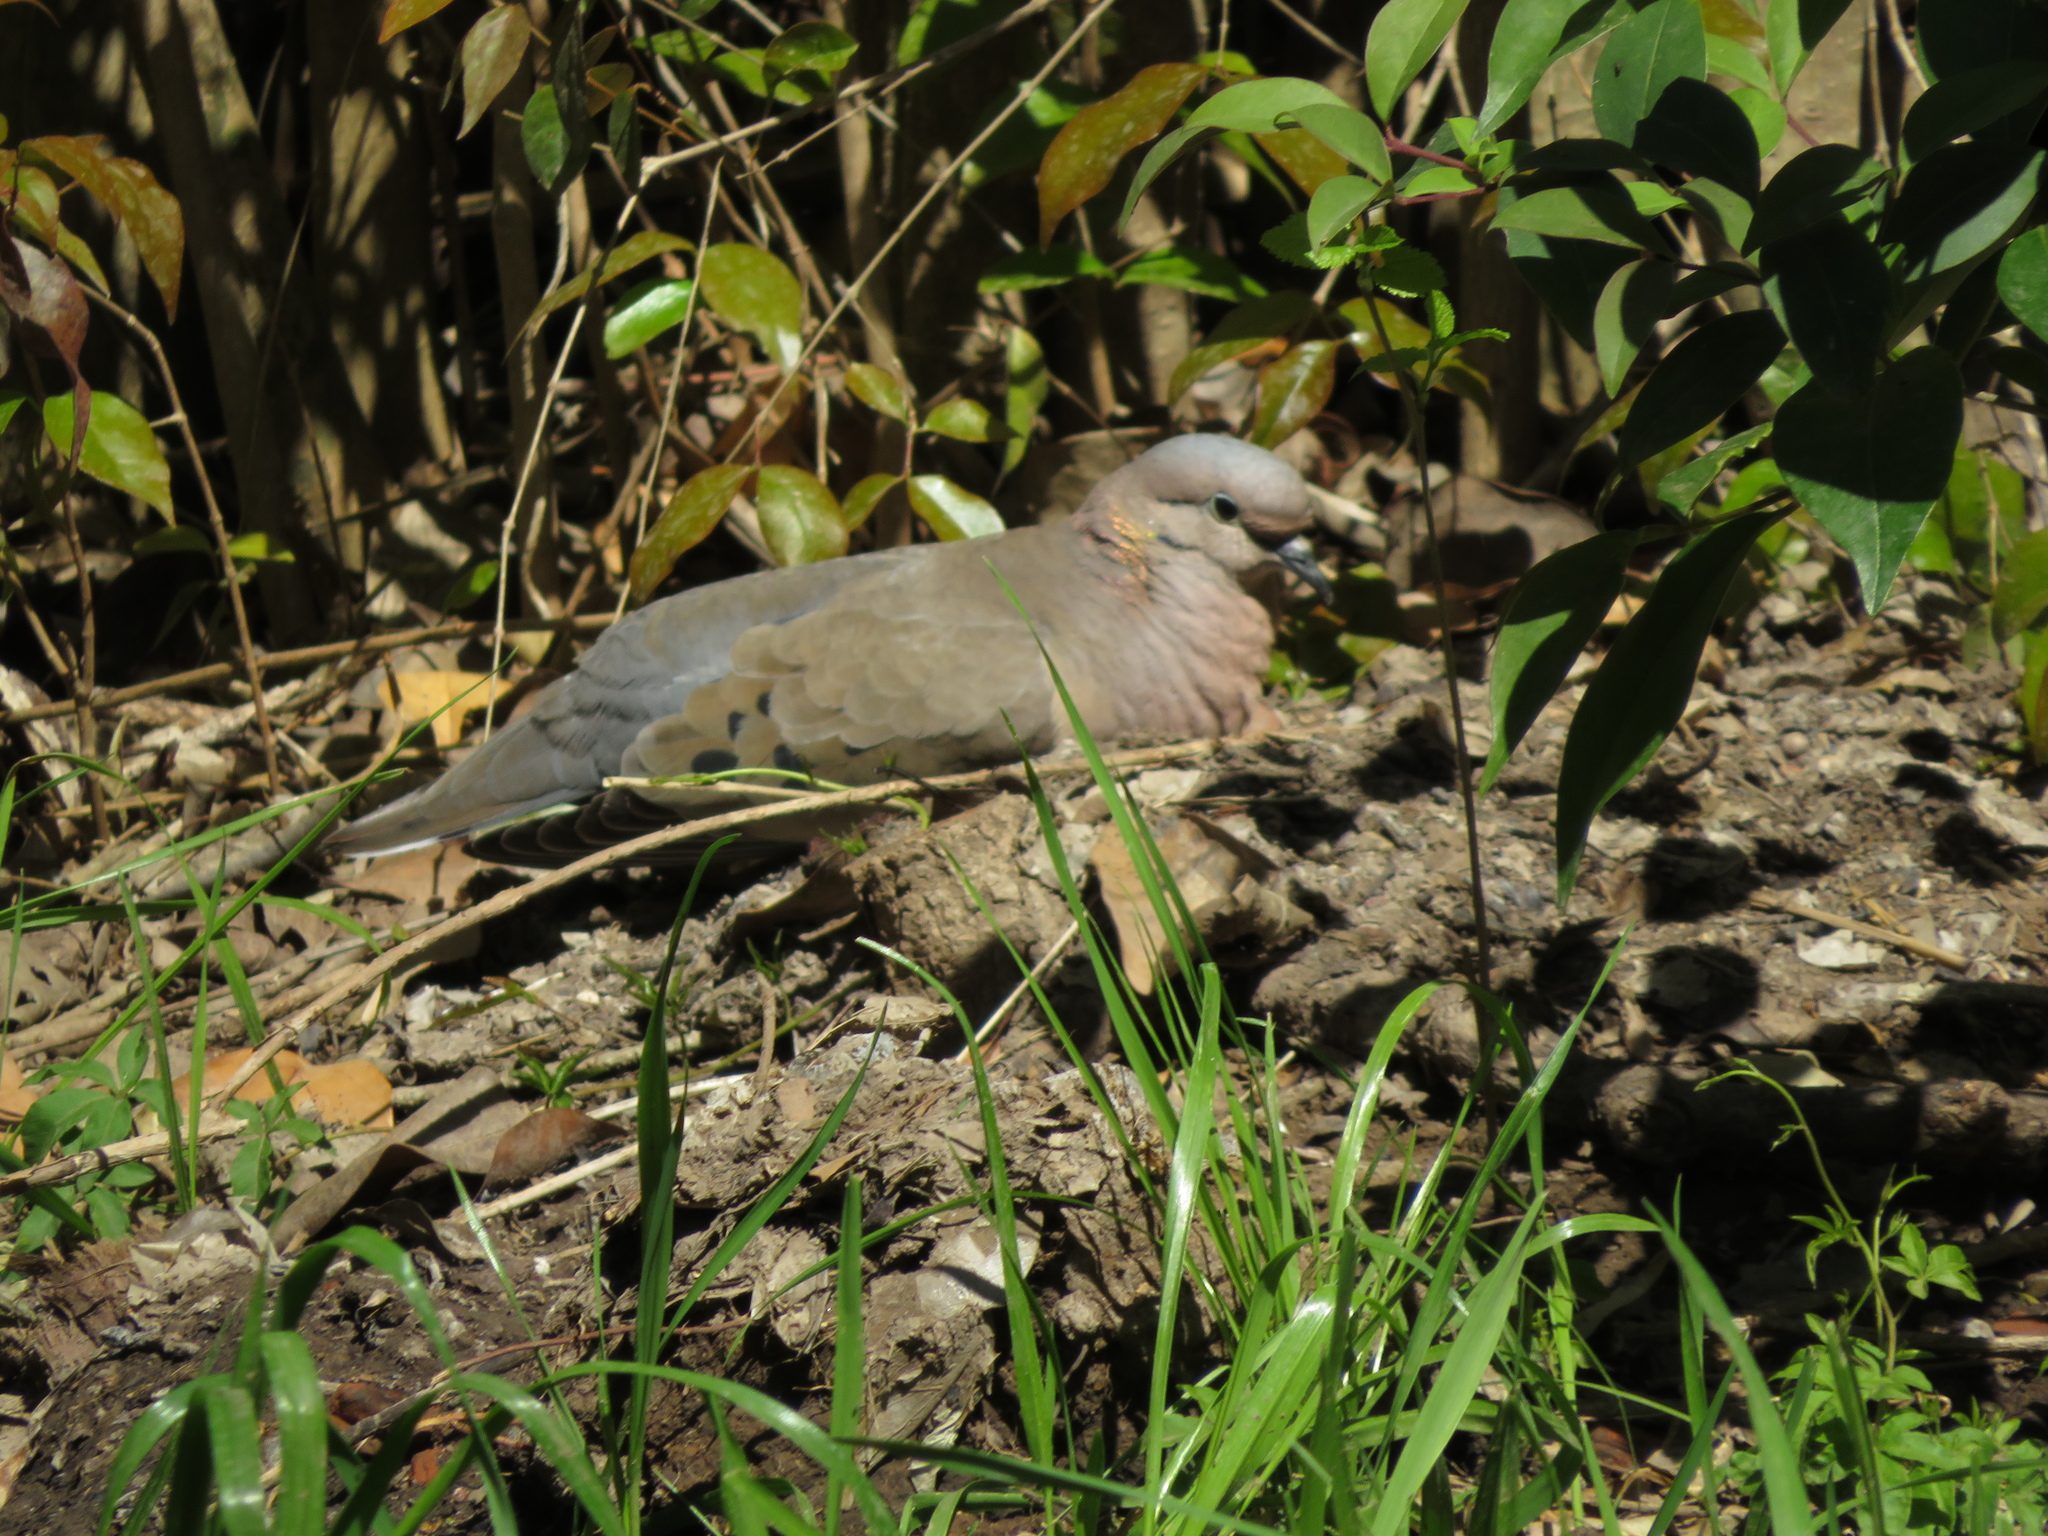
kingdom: Animalia
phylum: Chordata
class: Aves
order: Columbiformes
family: Columbidae
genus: Zenaida
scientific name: Zenaida auriculata
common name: Eared dove
